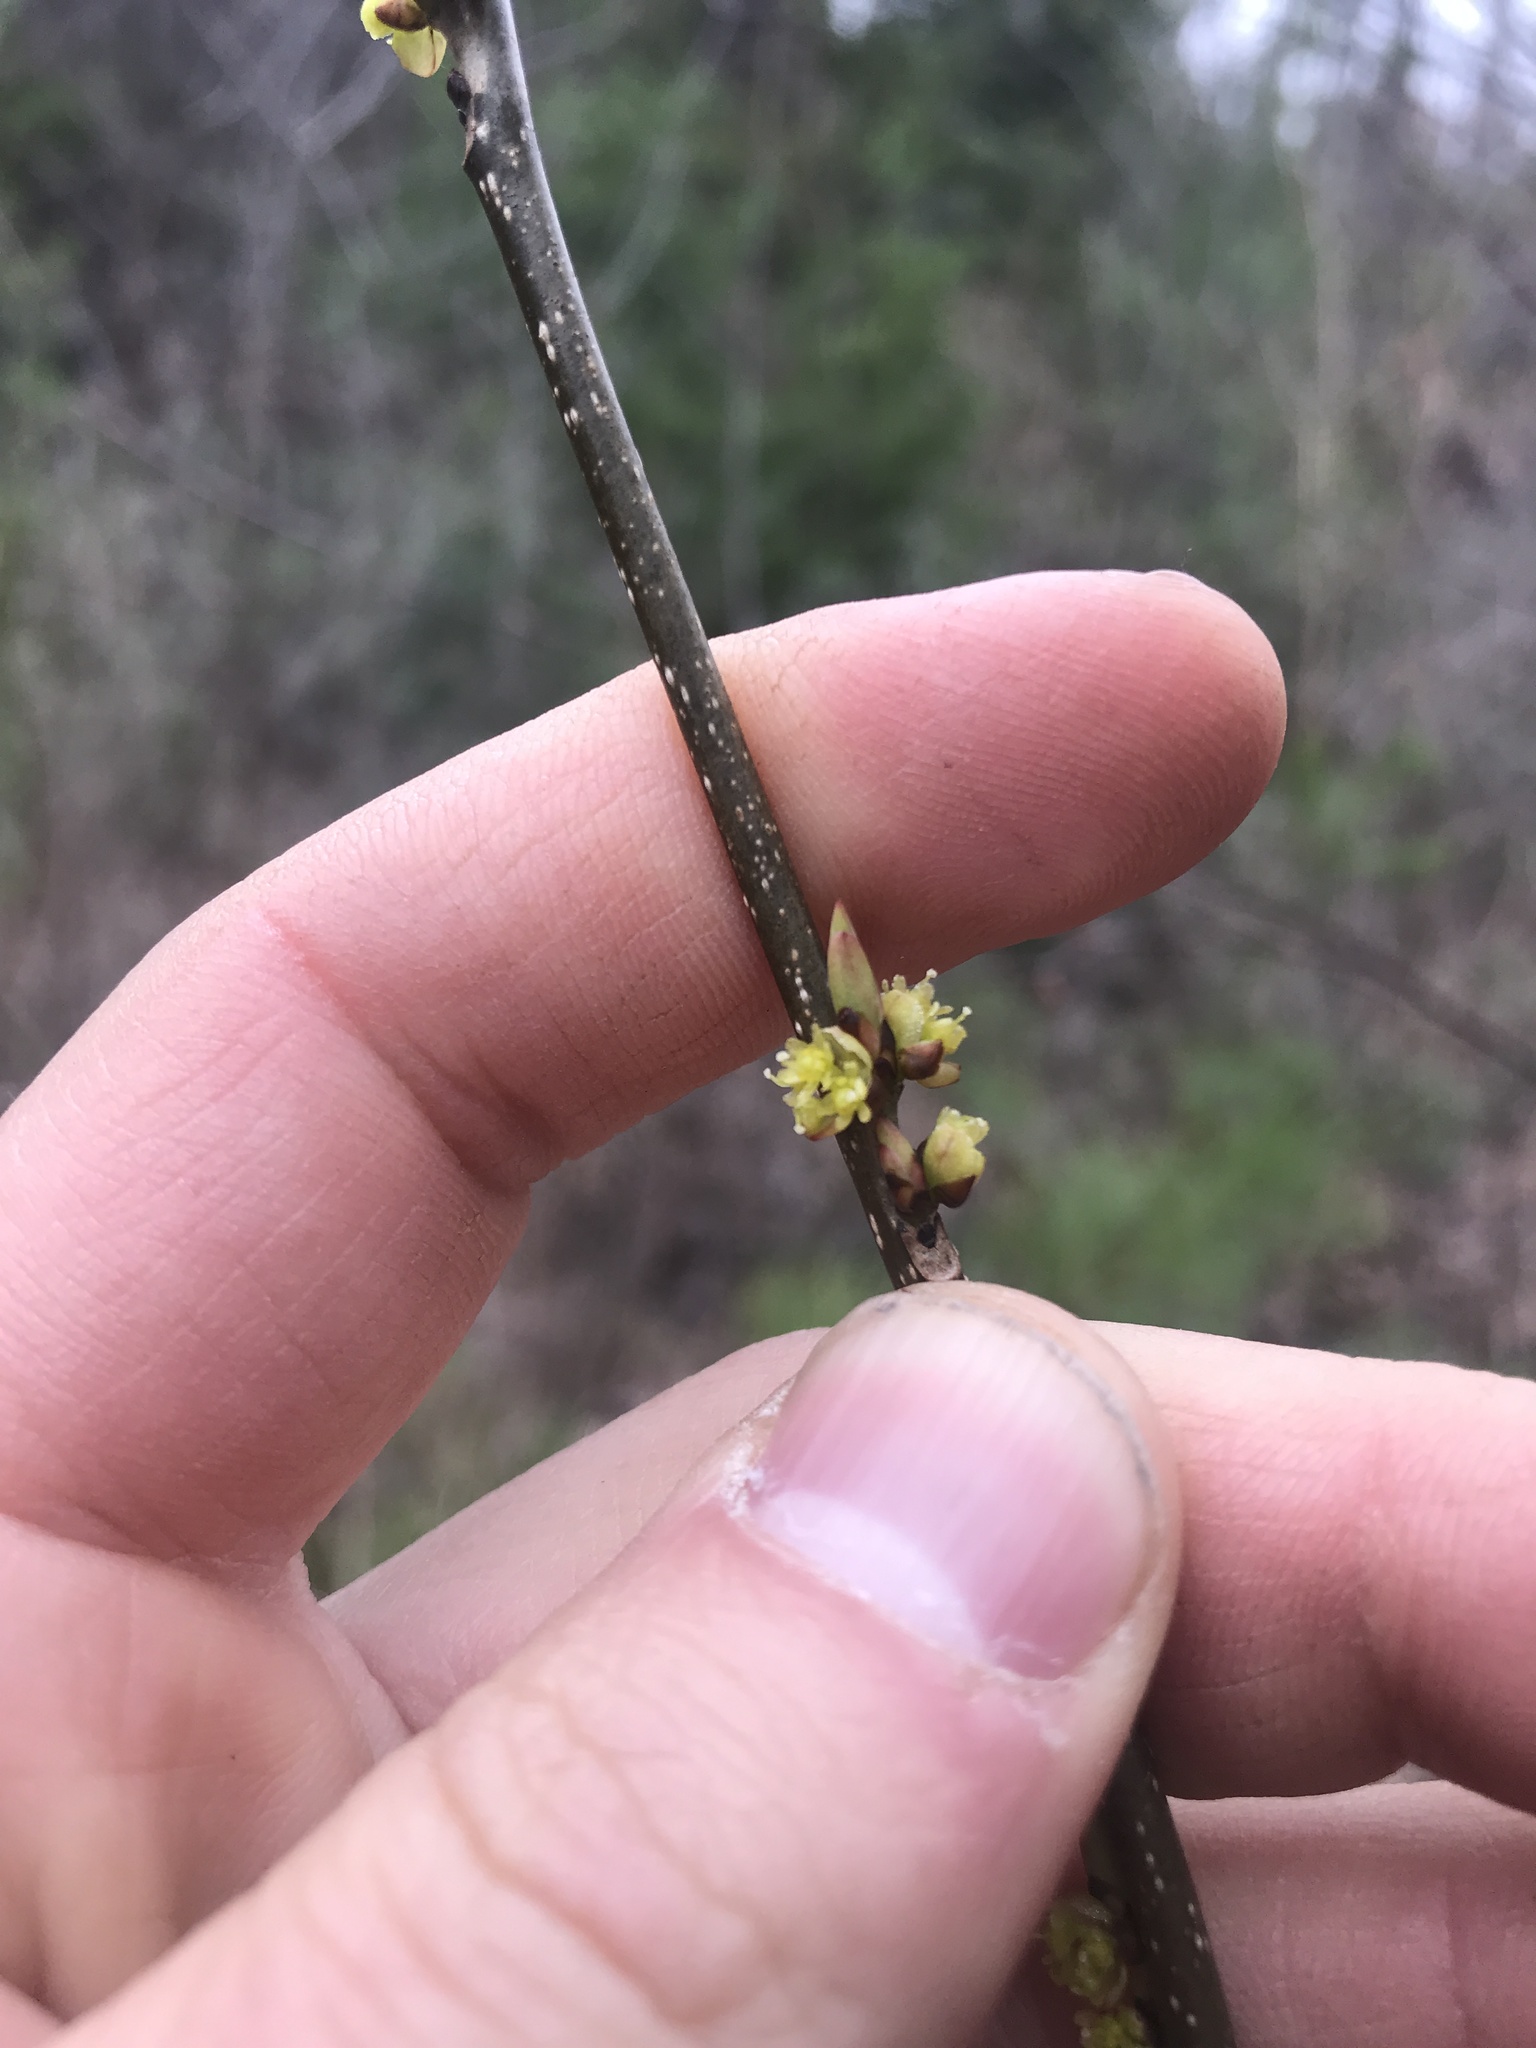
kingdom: Plantae
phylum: Tracheophyta
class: Magnoliopsida
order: Laurales
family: Lauraceae
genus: Lindera
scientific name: Lindera benzoin
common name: Spicebush
